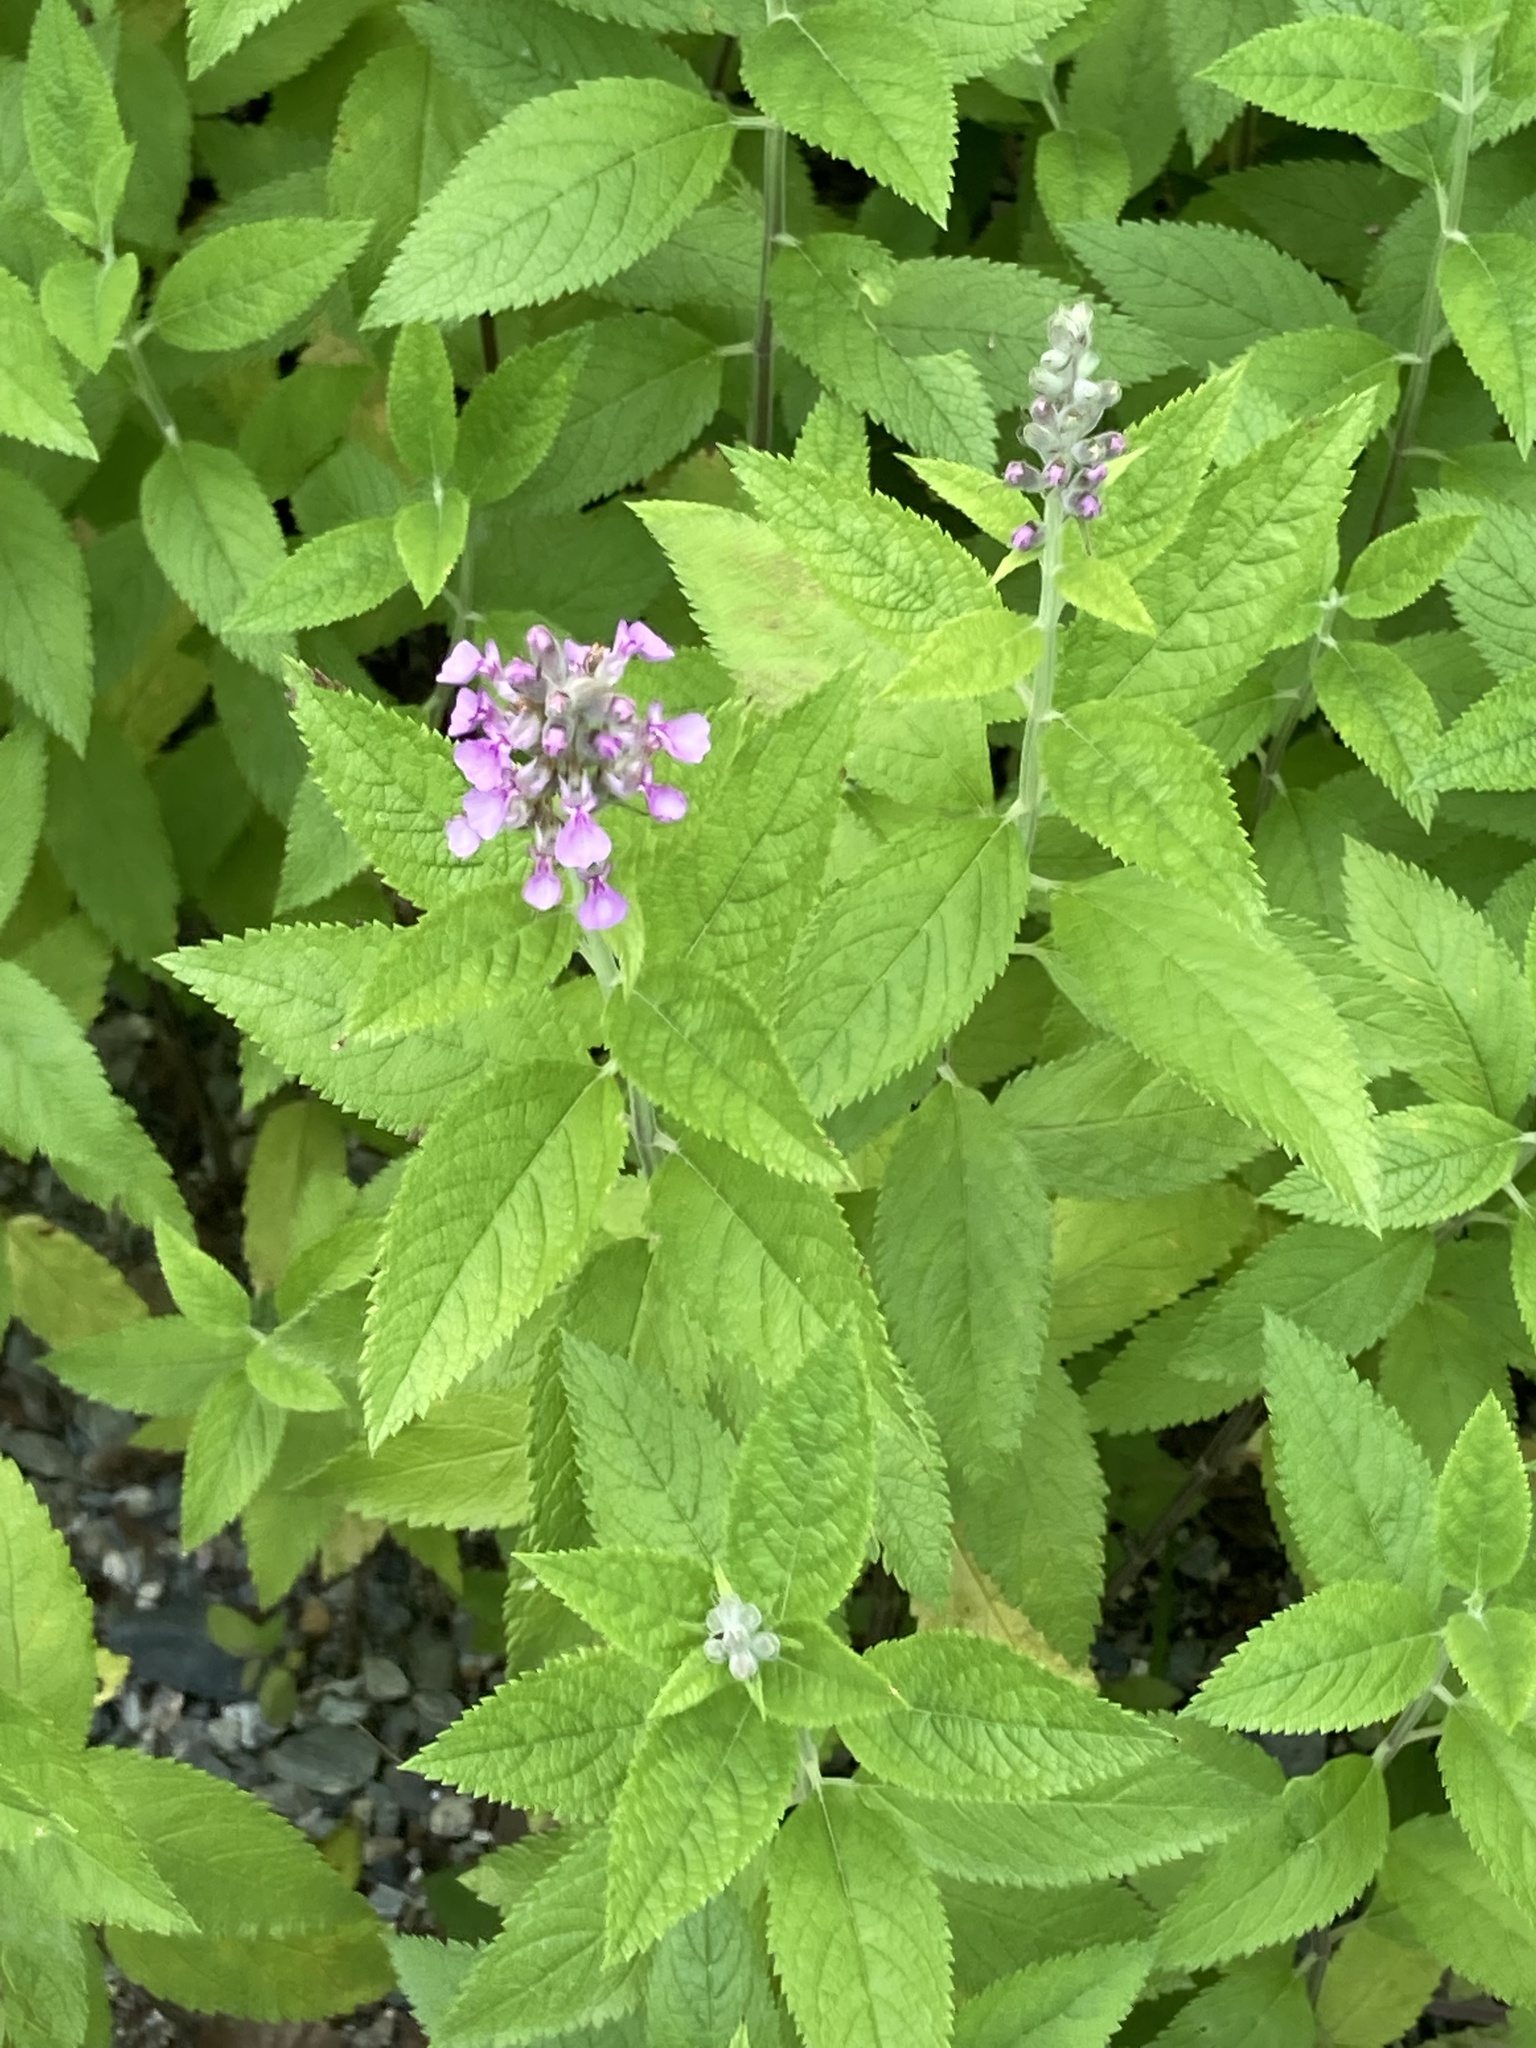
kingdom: Plantae
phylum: Tracheophyta
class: Magnoliopsida
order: Lamiales
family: Lamiaceae
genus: Teucrium
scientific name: Teucrium canadense
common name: American germander
